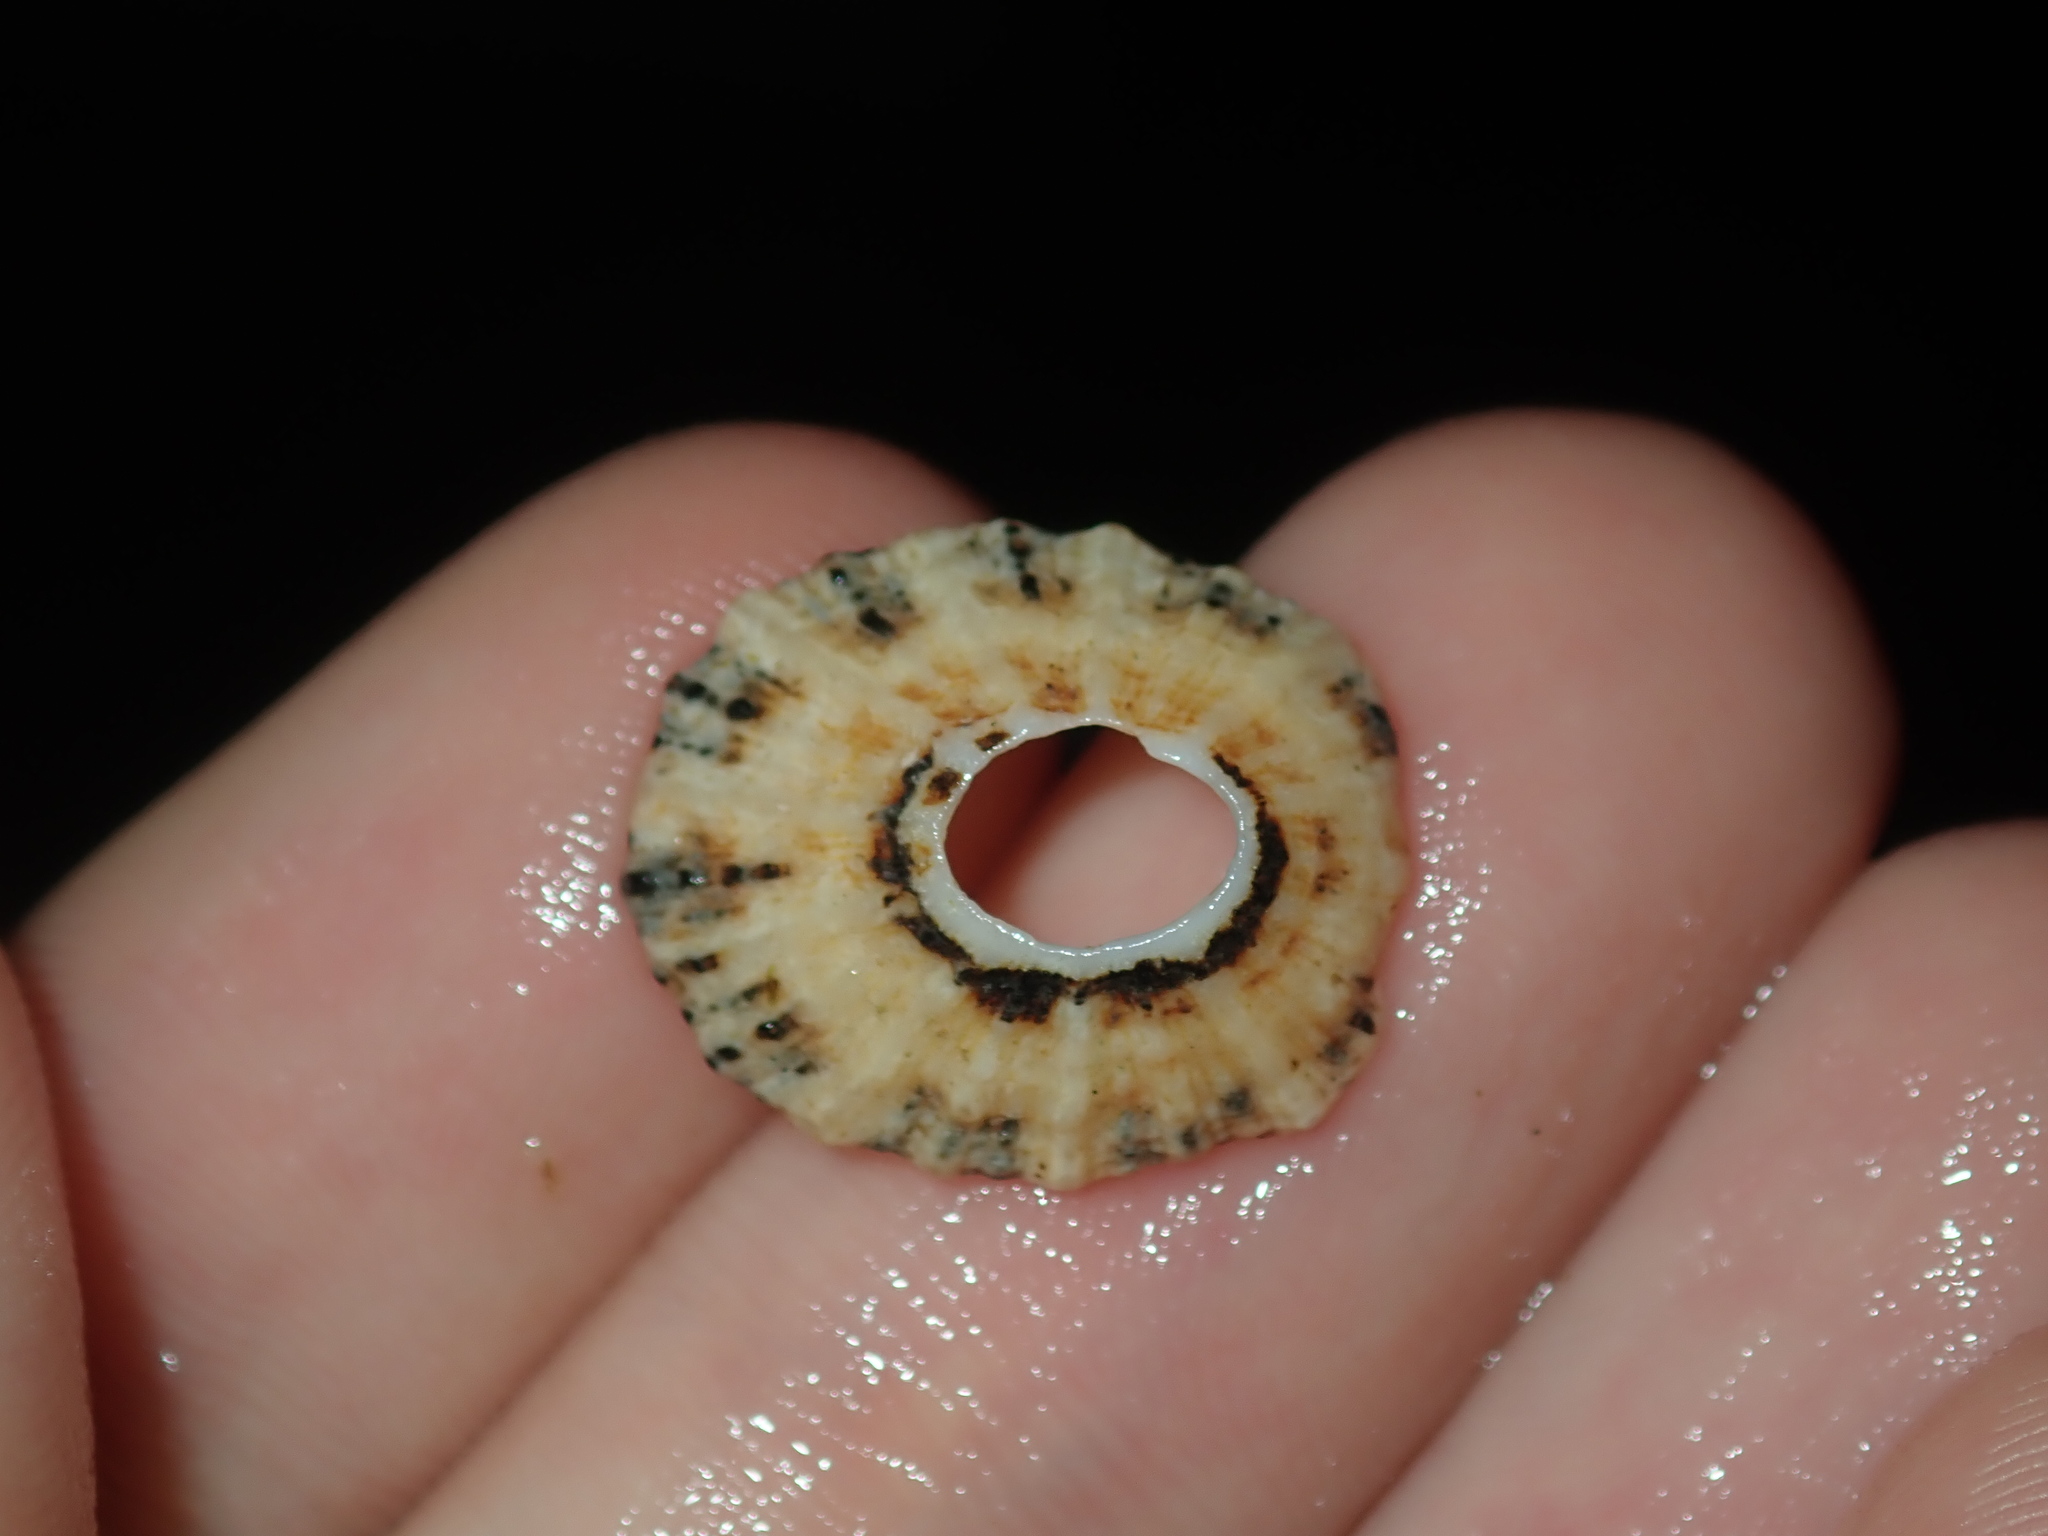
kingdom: Animalia
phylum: Mollusca
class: Gastropoda
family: Patellidae
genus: Scutellastra
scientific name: Scutellastra peronii
